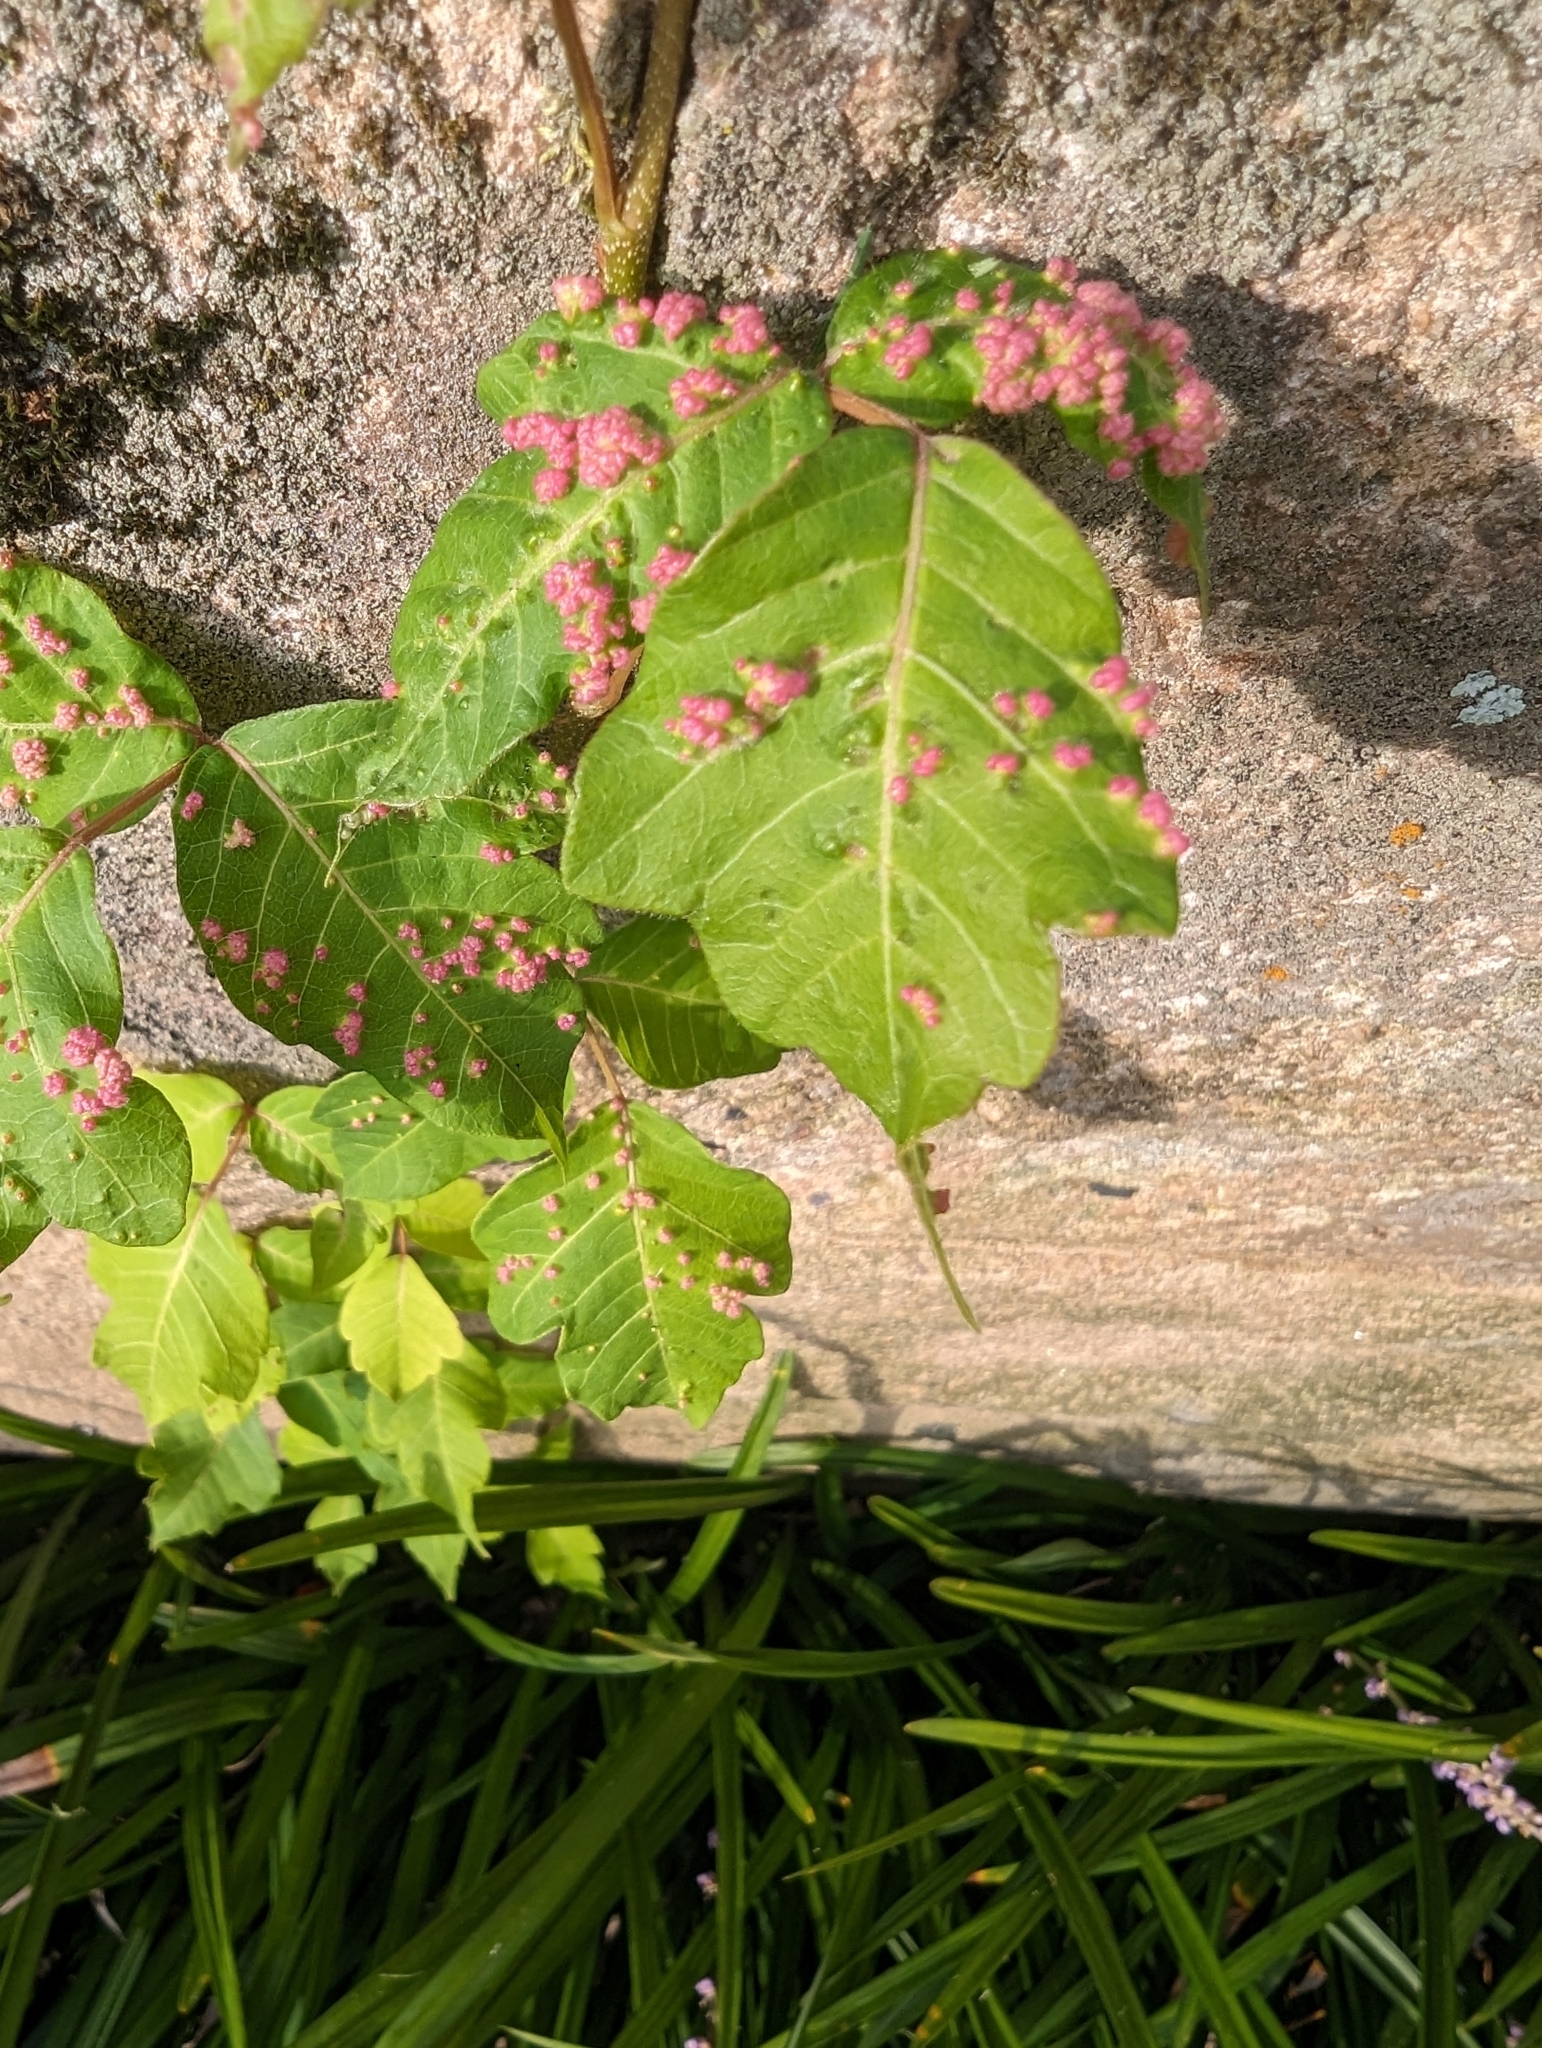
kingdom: Animalia
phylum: Arthropoda
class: Arachnida
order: Trombidiformes
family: Eriophyidae
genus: Aculops
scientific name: Aculops
